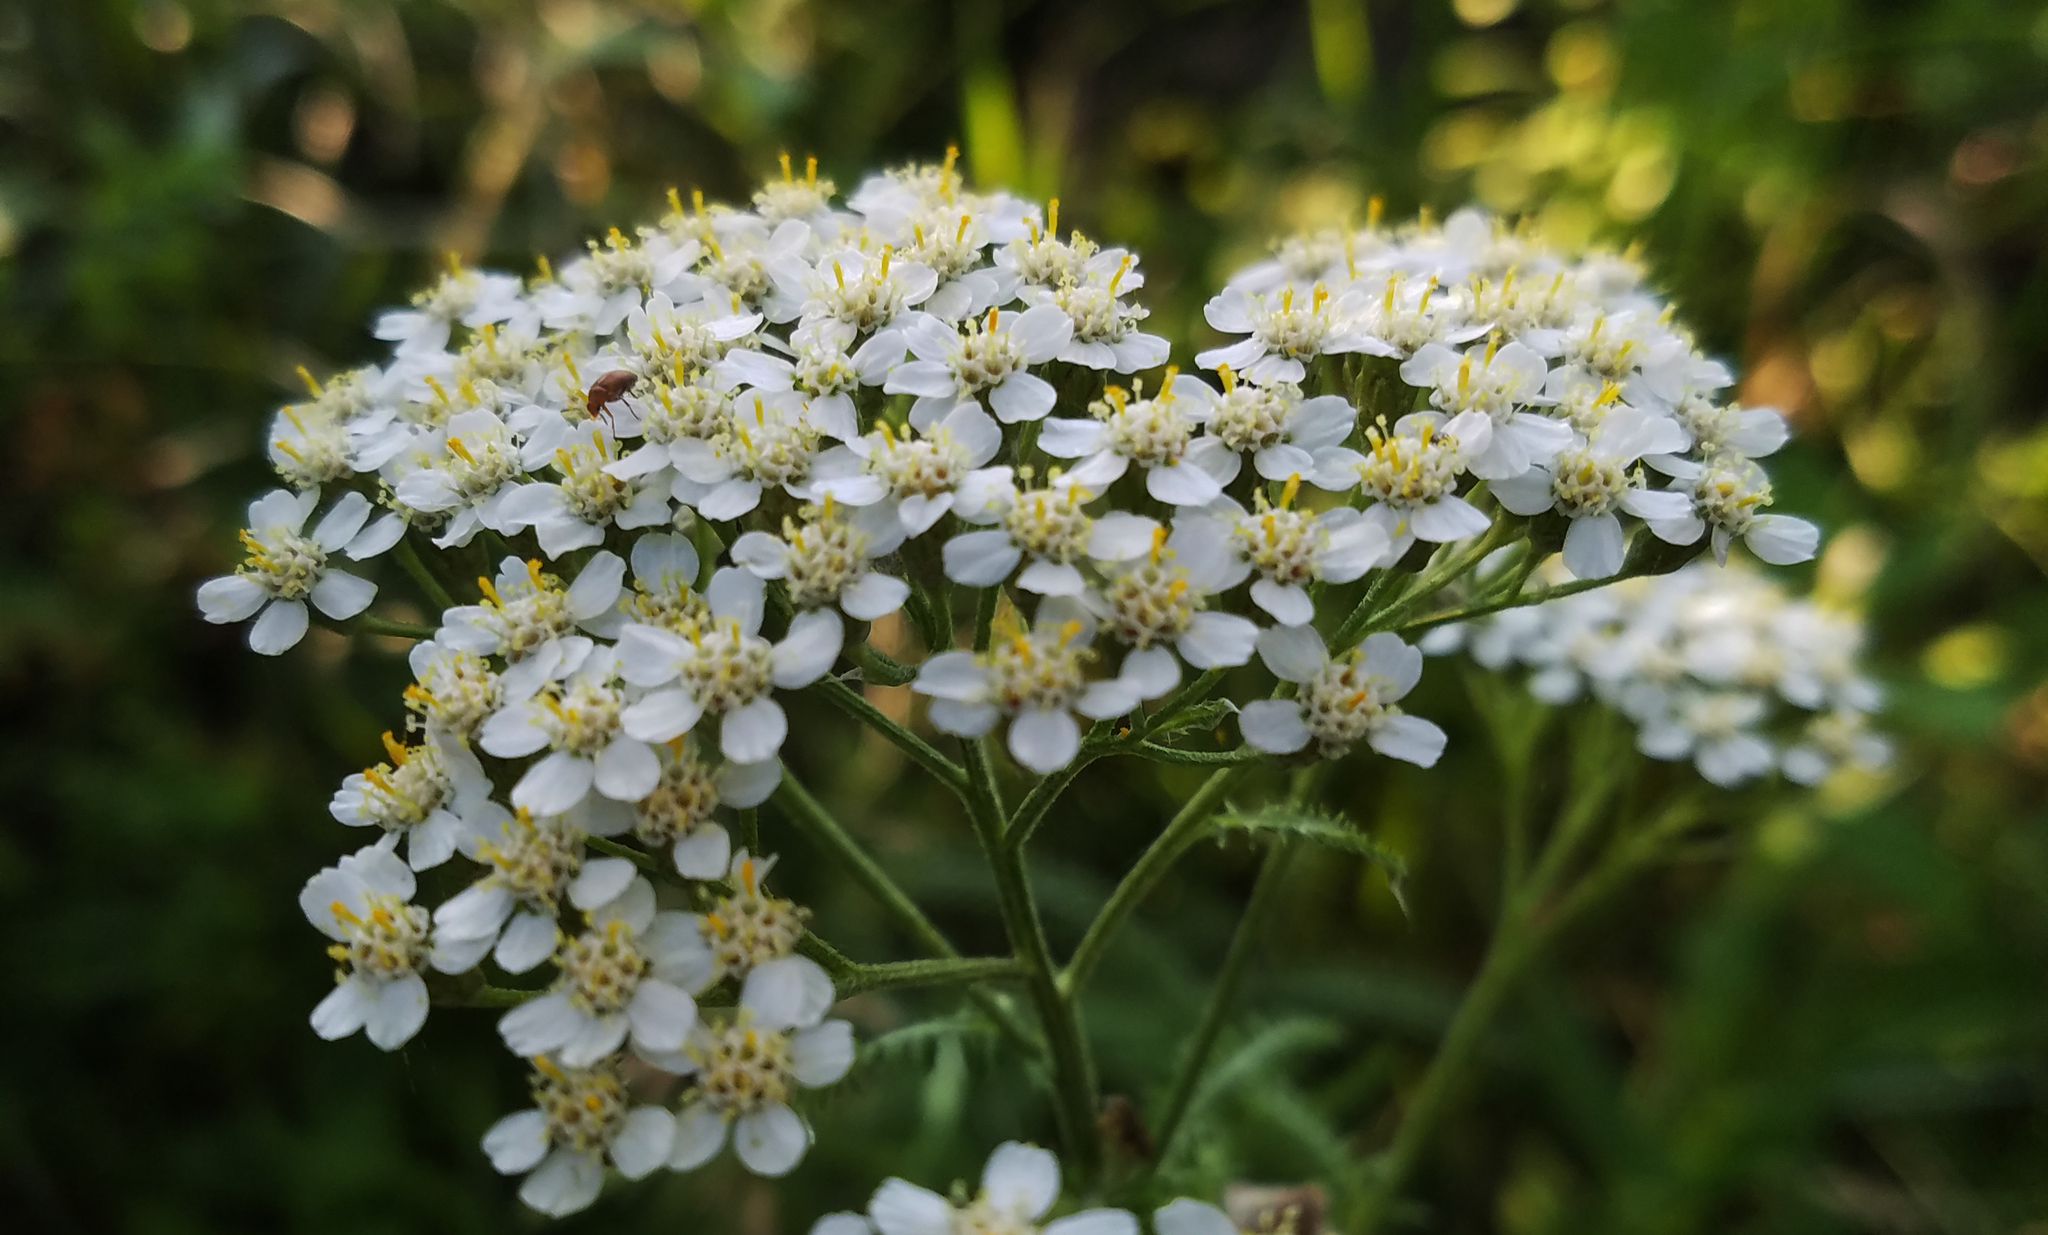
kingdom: Plantae
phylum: Tracheophyta
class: Magnoliopsida
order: Asterales
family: Asteraceae
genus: Achillea
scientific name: Achillea millefolium
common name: Yarrow
